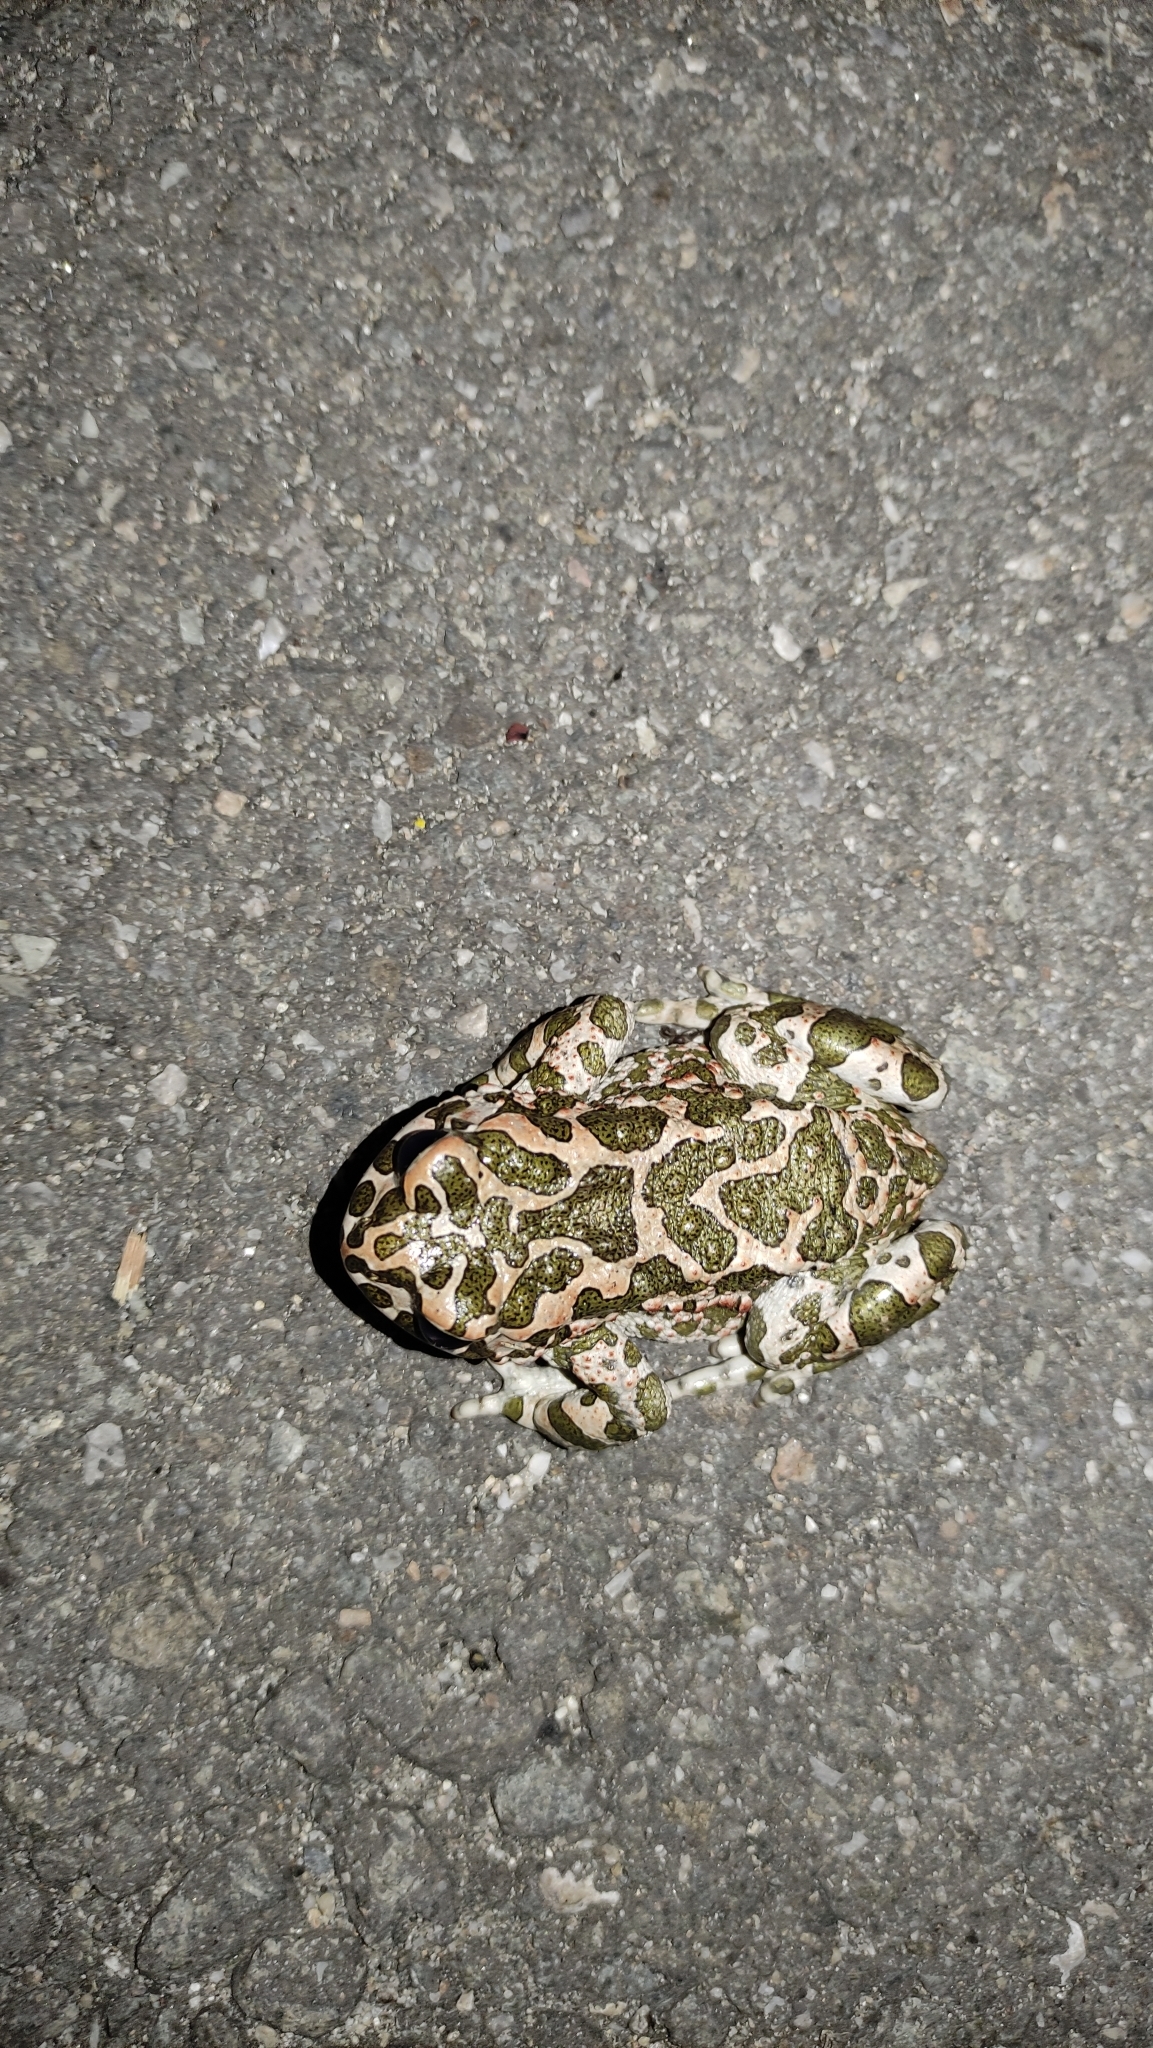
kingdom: Animalia
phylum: Chordata
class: Amphibia
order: Anura
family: Bufonidae
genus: Bufotes
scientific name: Bufotes viridis
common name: European green toad
